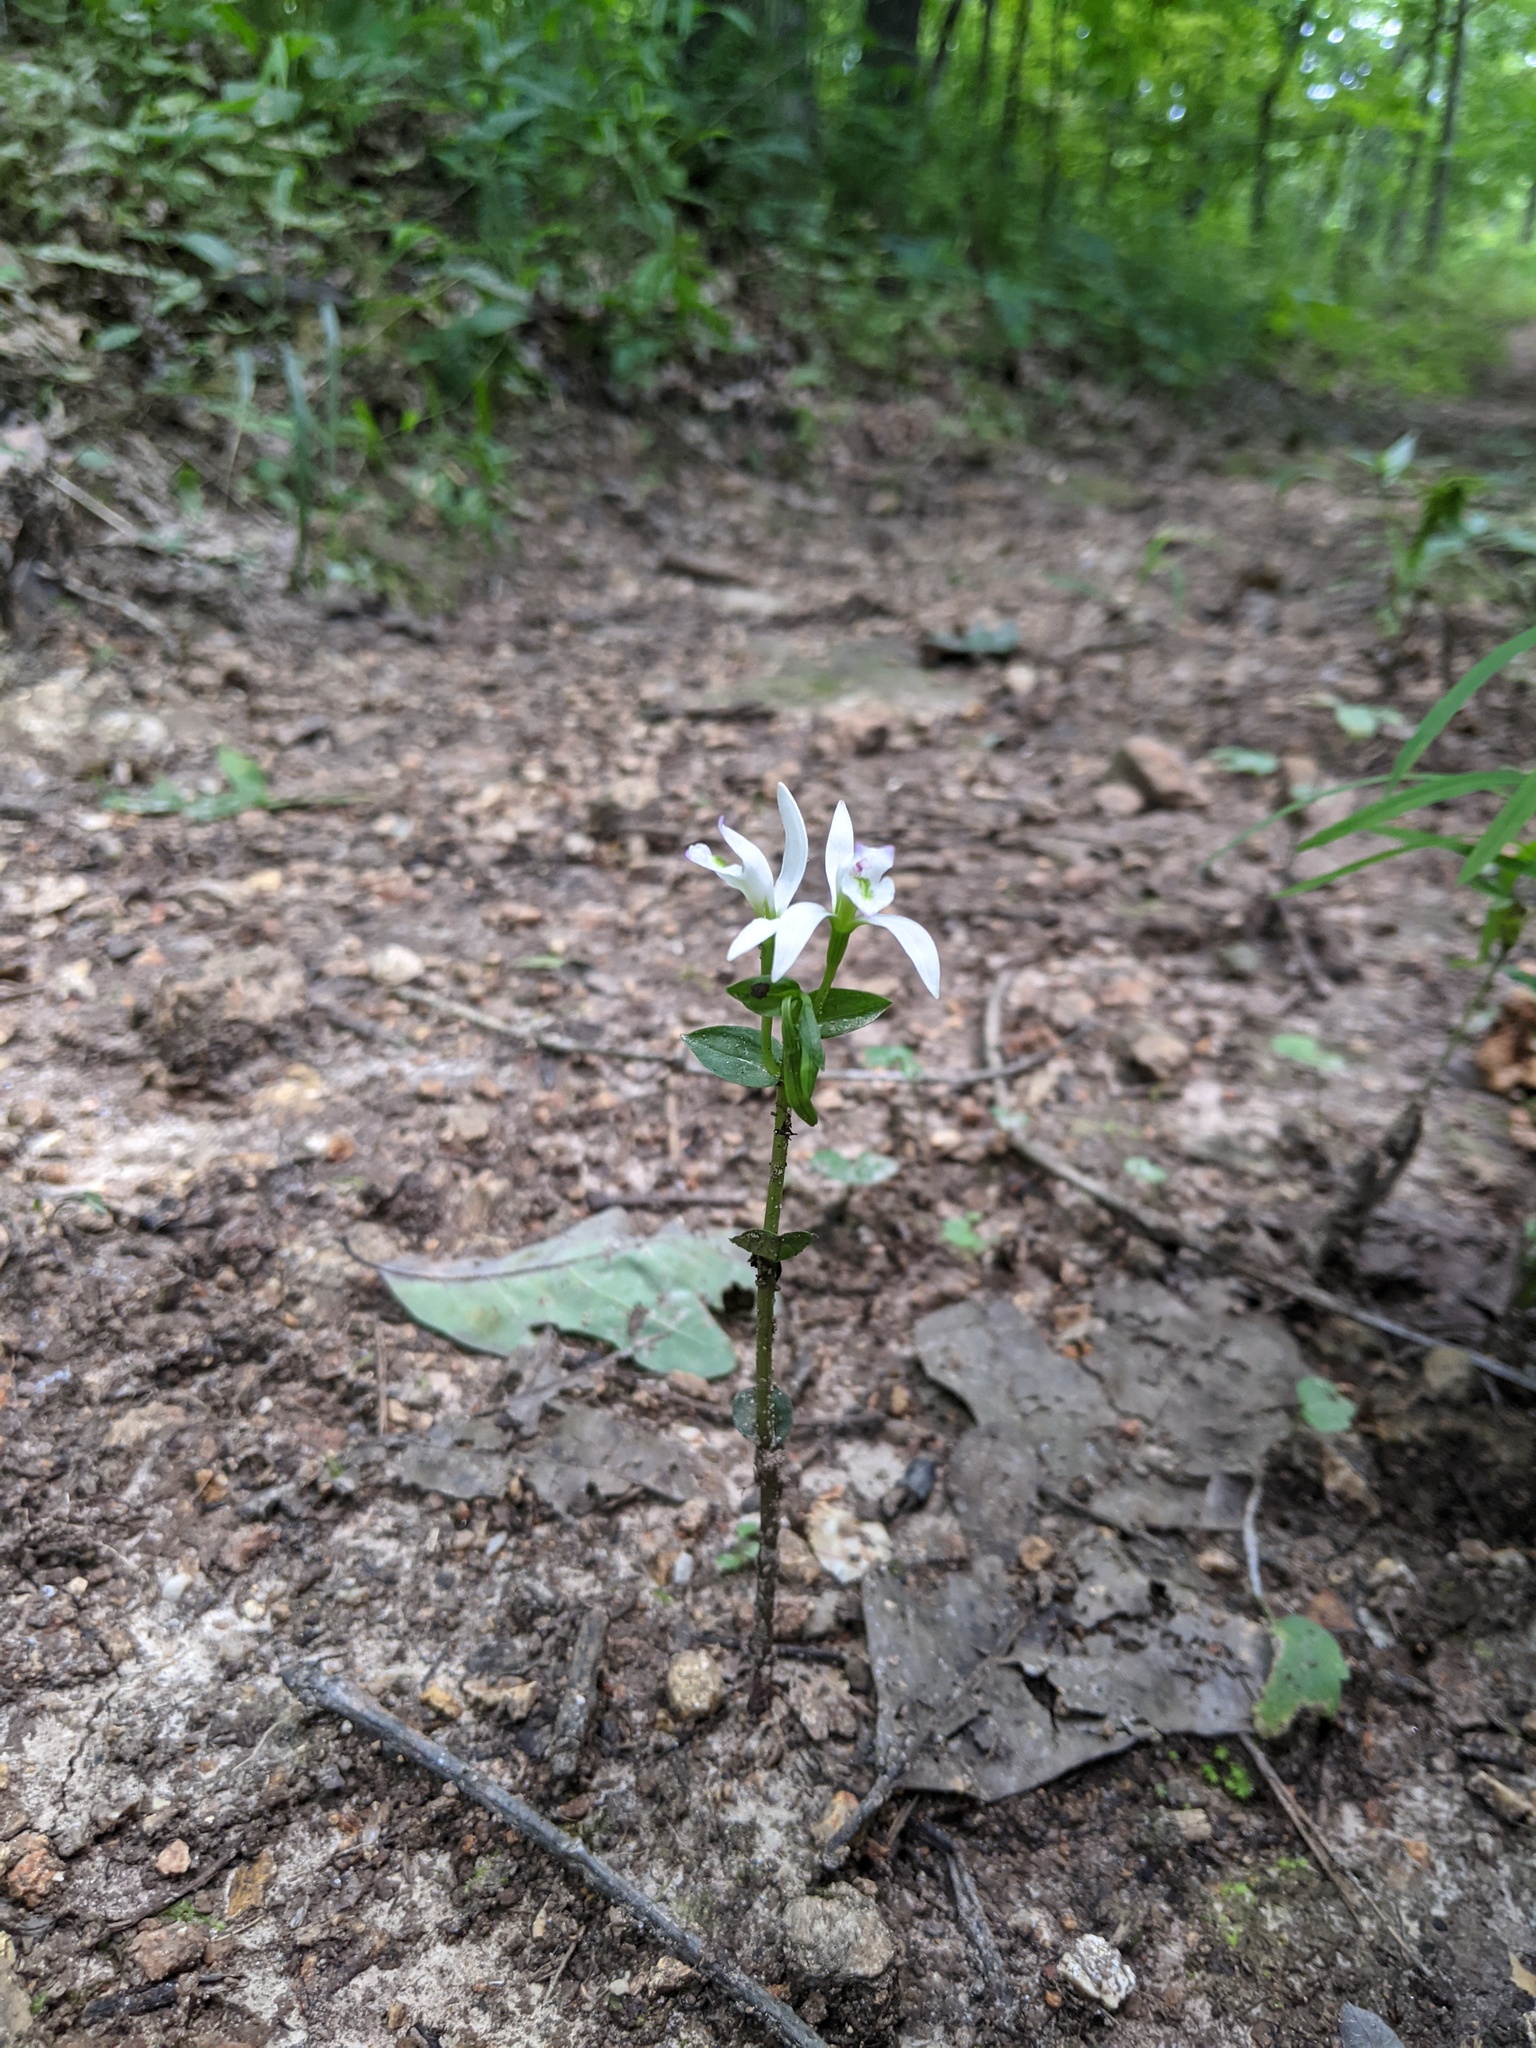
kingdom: Plantae
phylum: Tracheophyta
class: Liliopsida
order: Asparagales
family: Orchidaceae
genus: Triphora
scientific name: Triphora trianthophoros
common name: Three birds orchid
